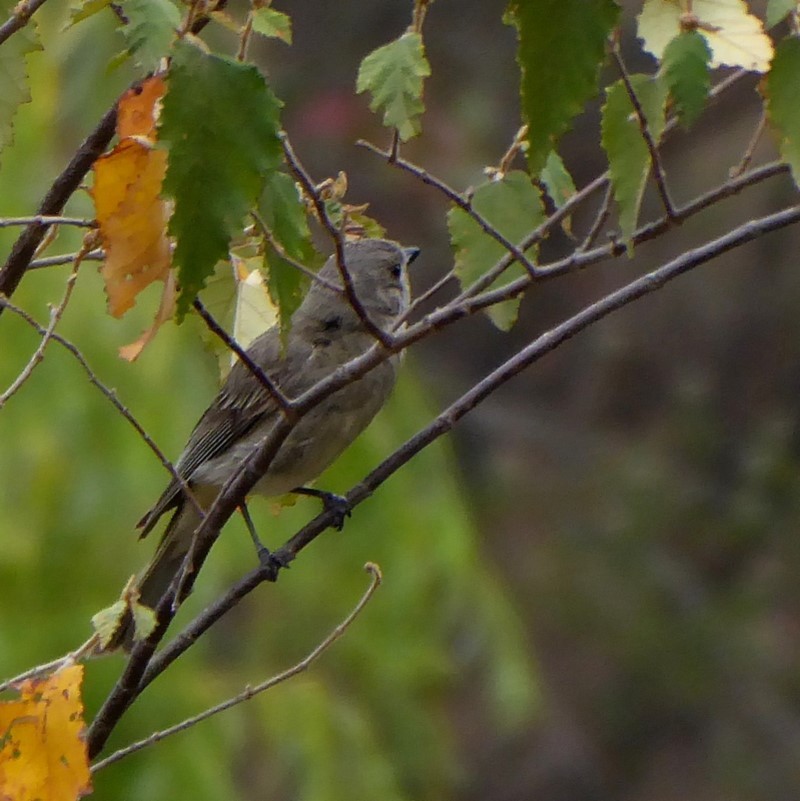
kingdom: Animalia
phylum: Chordata
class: Aves
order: Passeriformes
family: Pachycephalidae
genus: Pachycephala
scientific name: Pachycephala pectoralis
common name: Australian golden whistler
